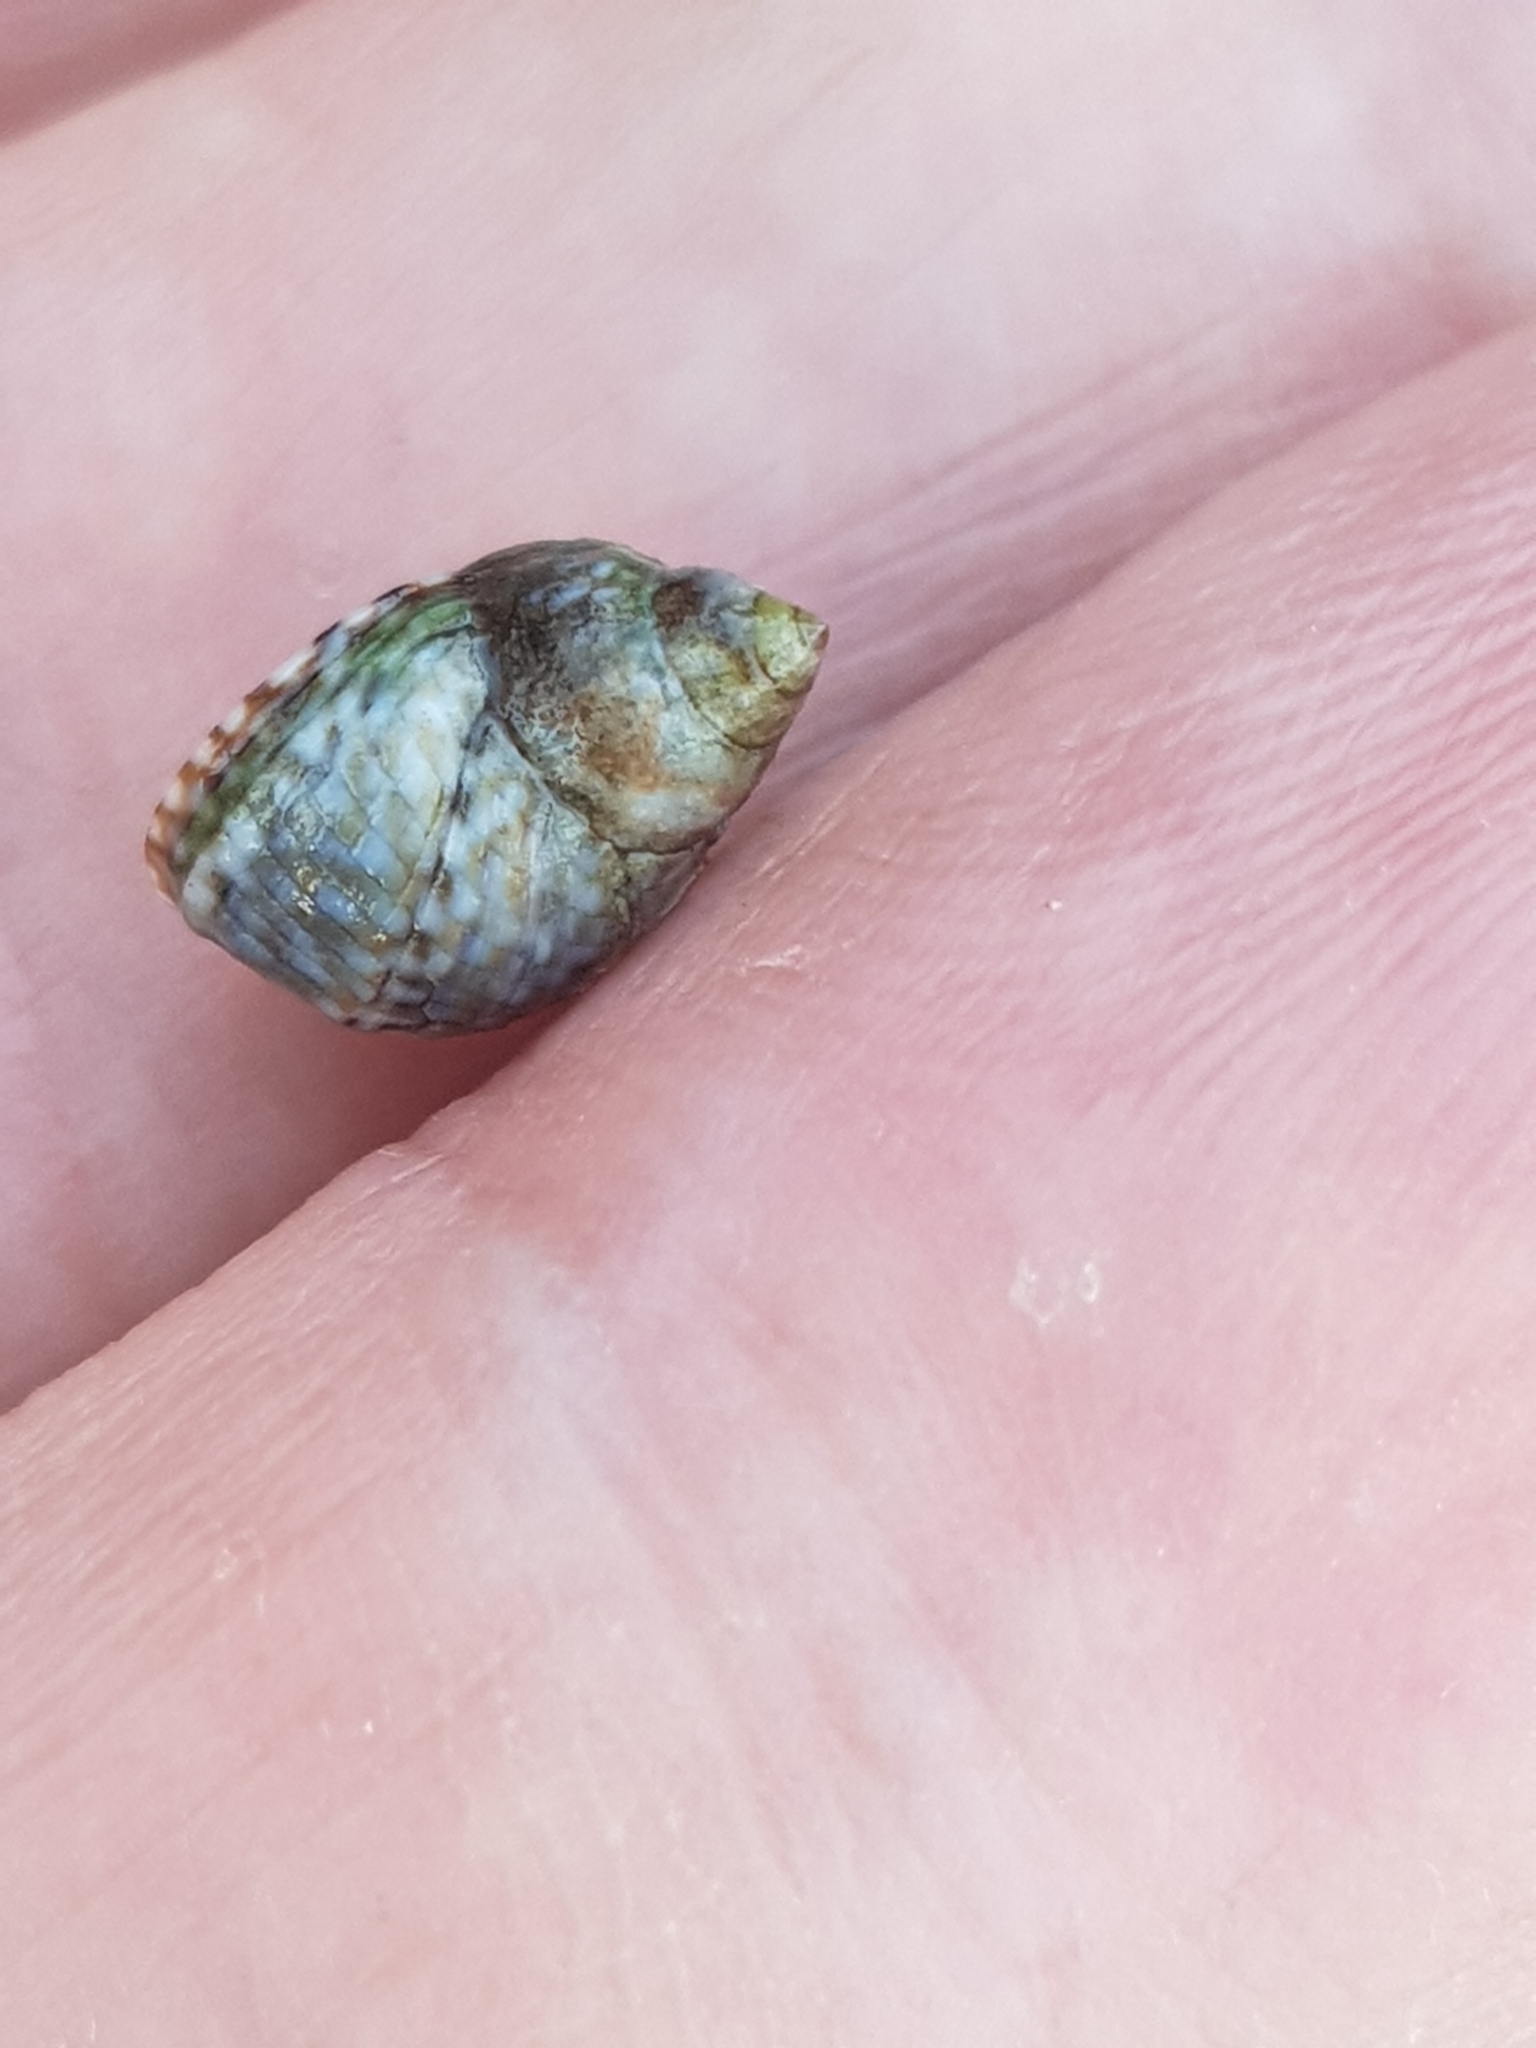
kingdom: Animalia
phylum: Mollusca
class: Gastropoda
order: Littorinimorpha
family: Littorinidae
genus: Echinolittorina
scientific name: Echinolittorina punctata
